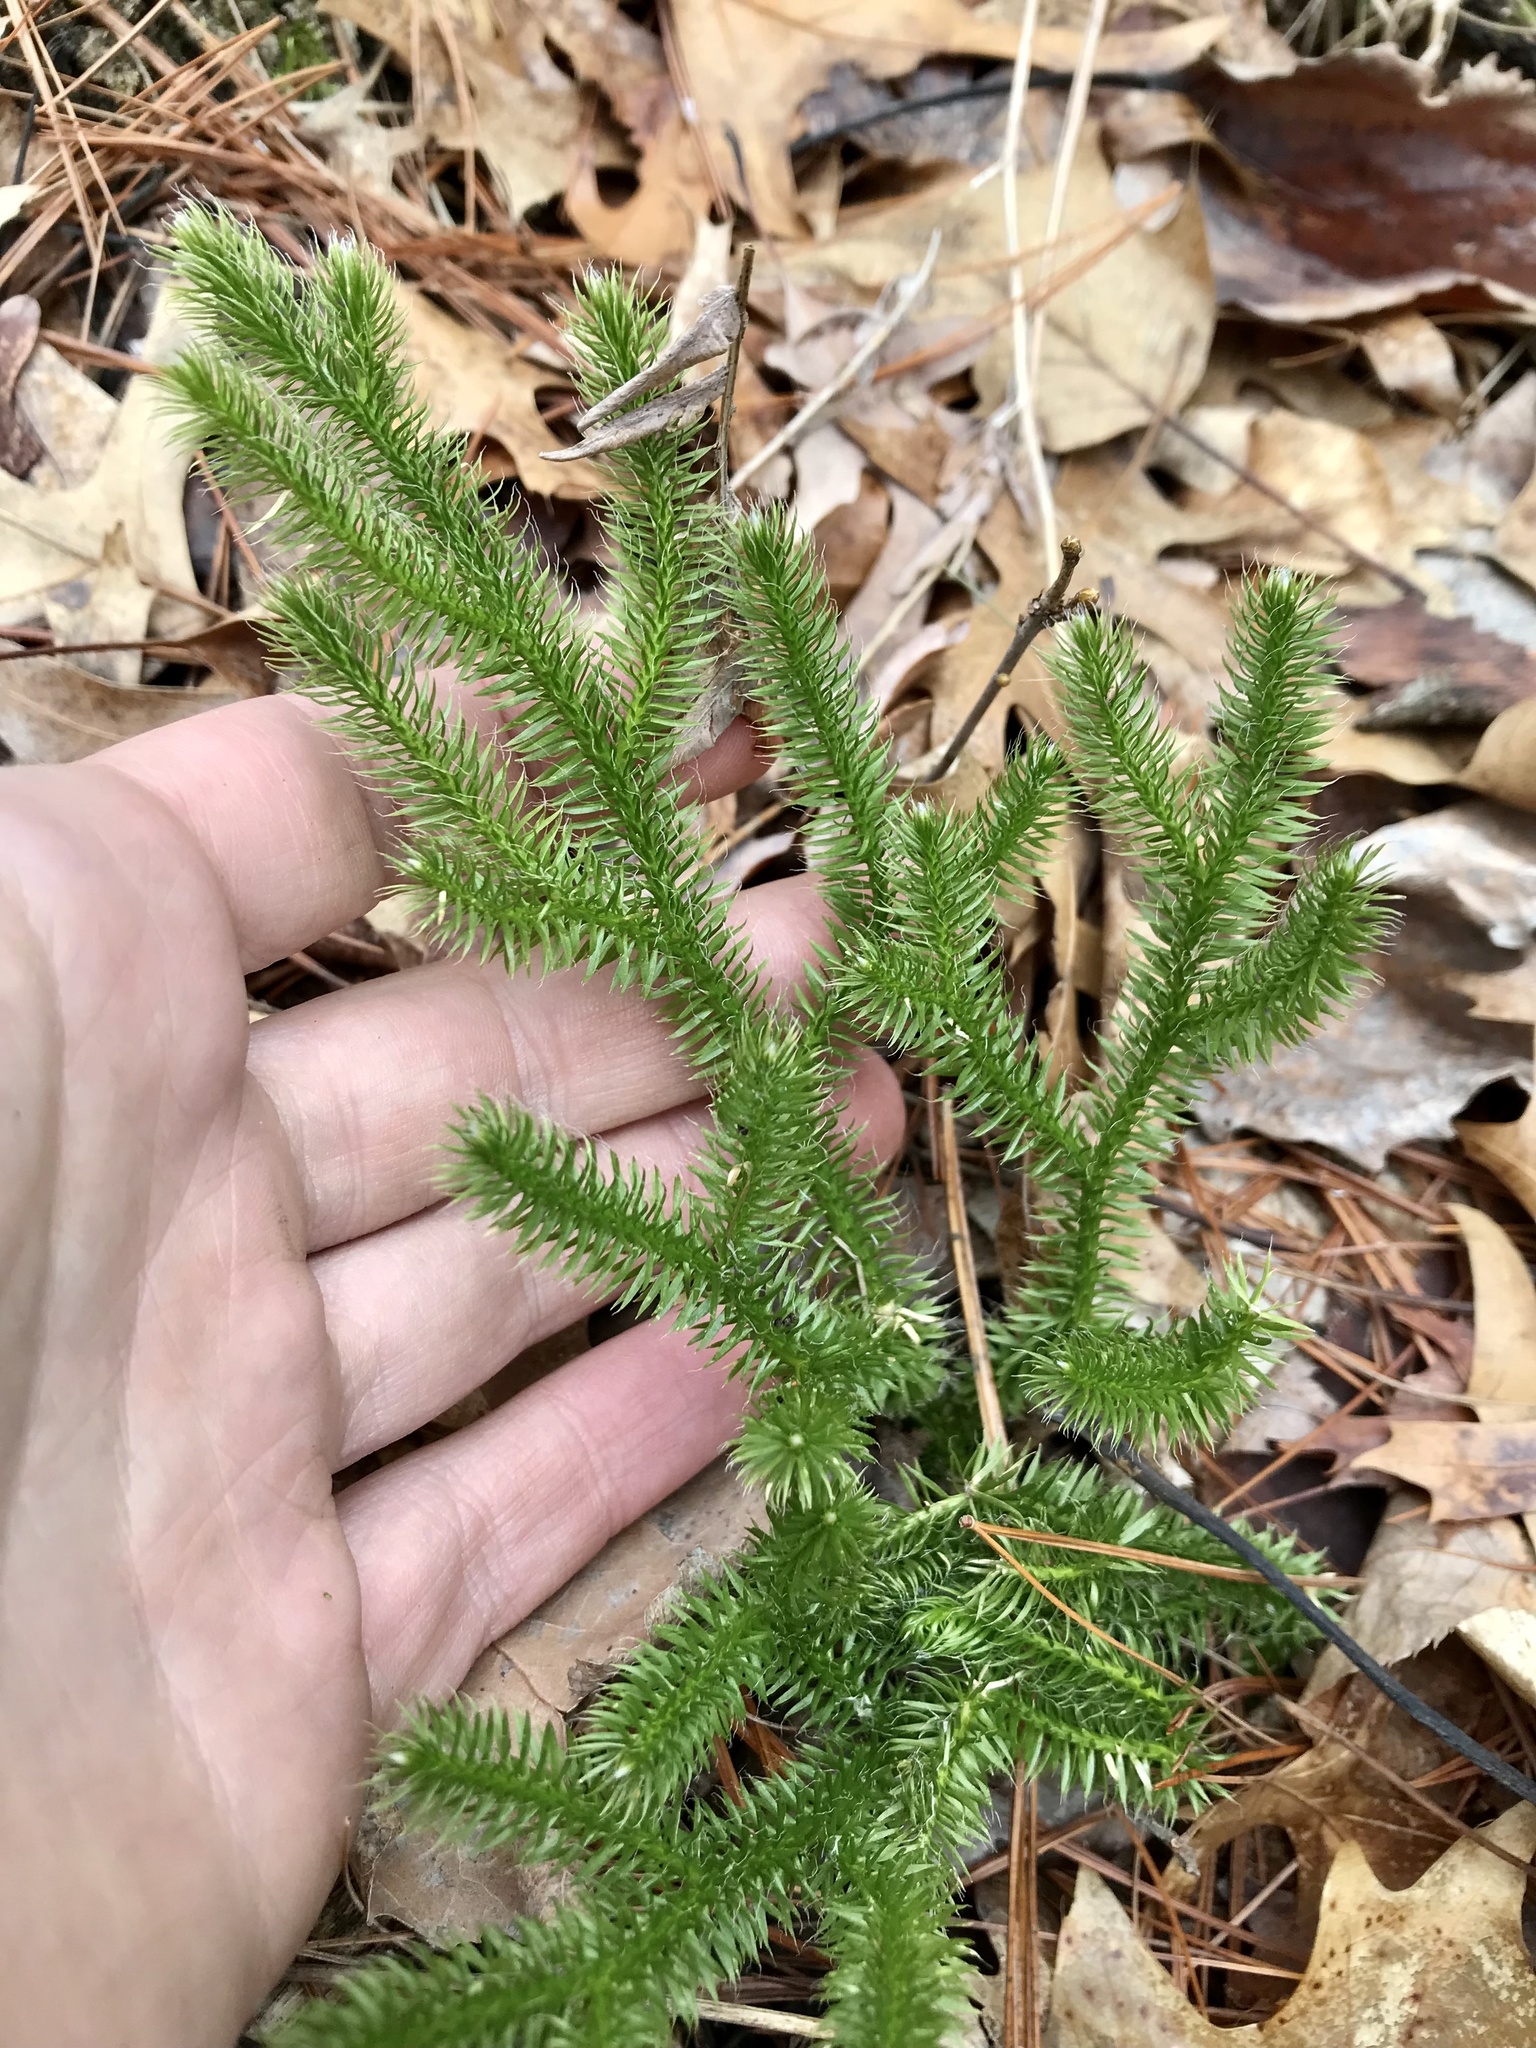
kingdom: Plantae
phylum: Tracheophyta
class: Lycopodiopsida
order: Lycopodiales
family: Lycopodiaceae
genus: Lycopodium
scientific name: Lycopodium clavatum
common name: Stag's-horn clubmoss
